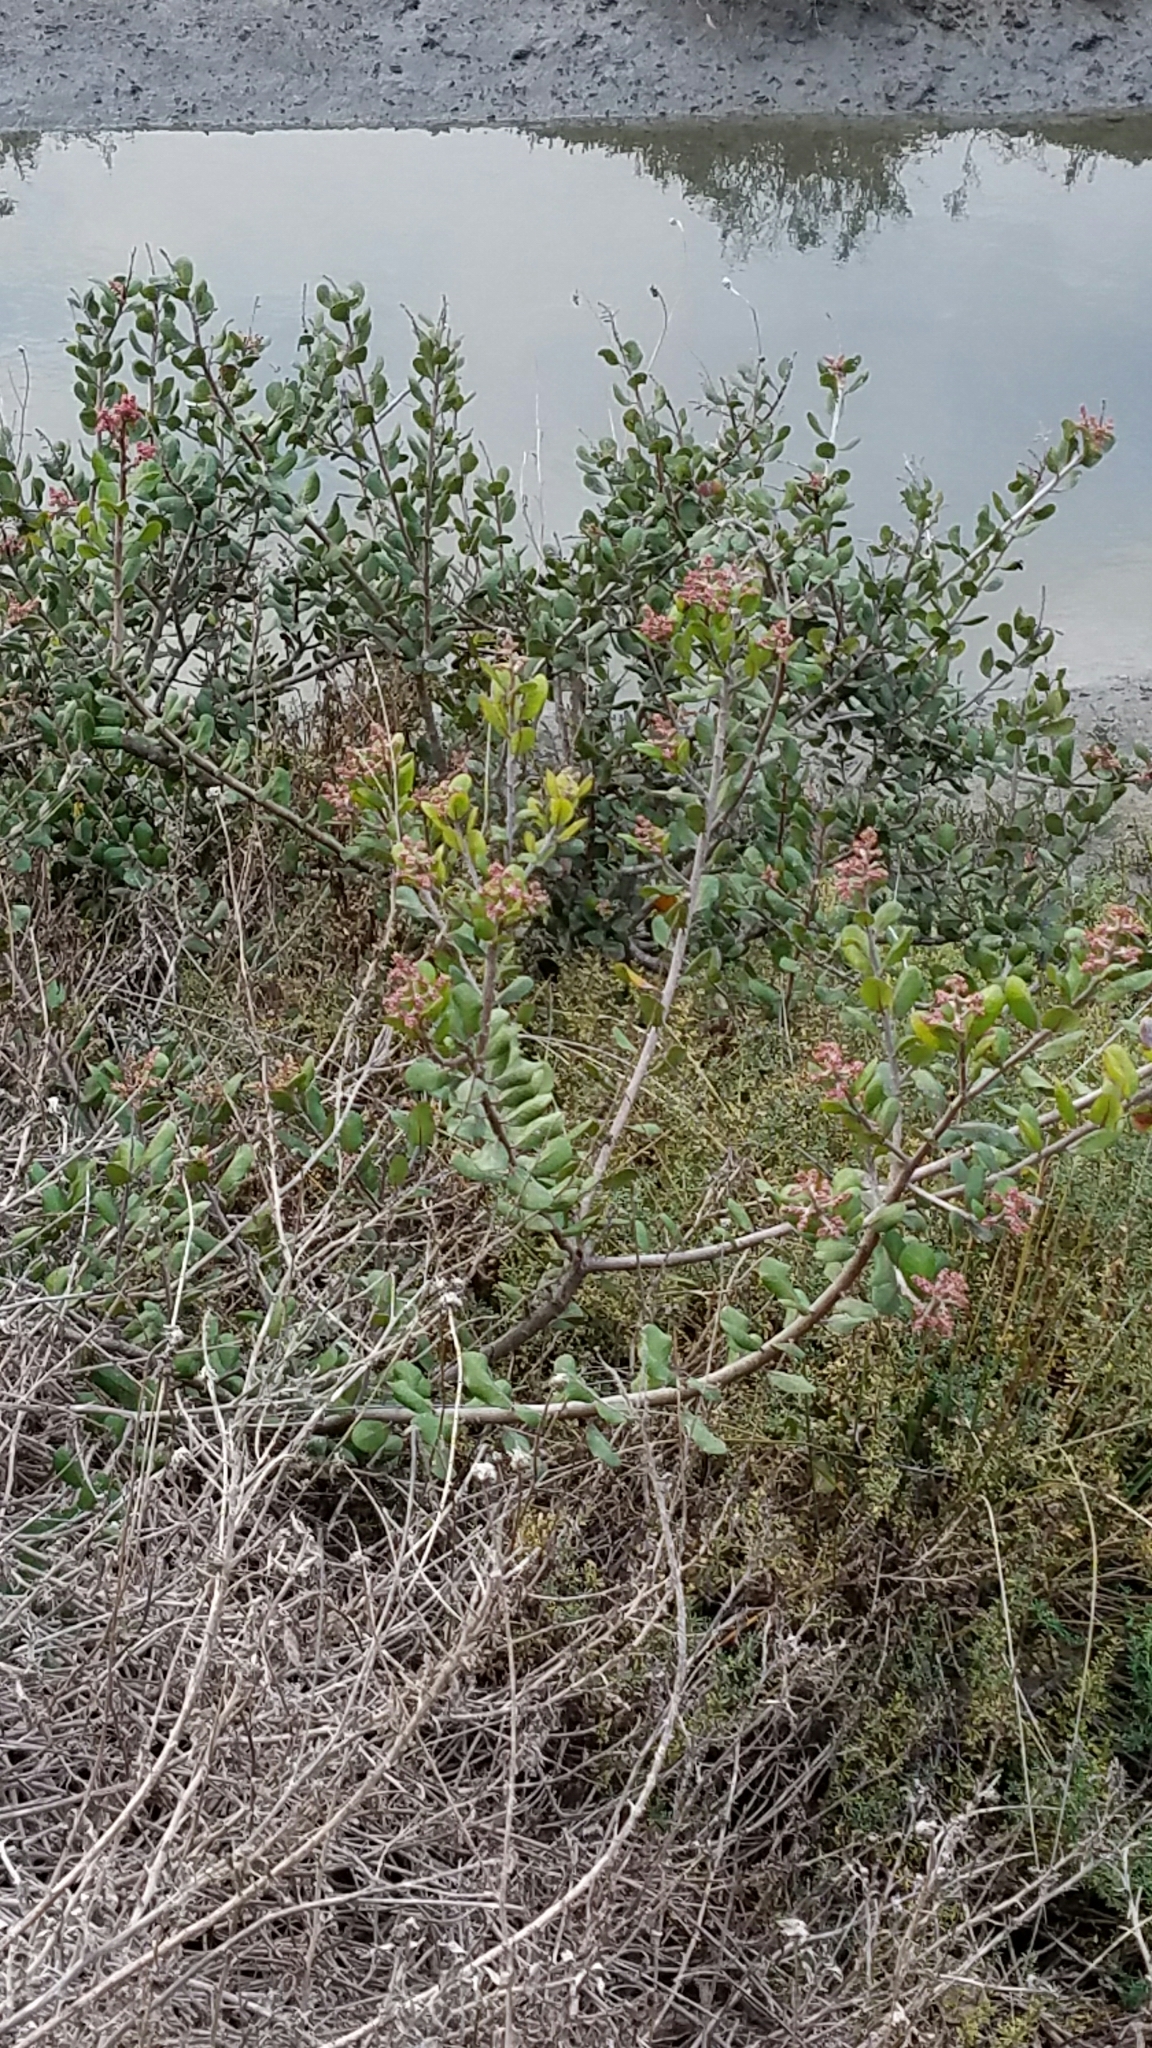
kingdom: Plantae
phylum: Tracheophyta
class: Magnoliopsida
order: Sapindales
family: Anacardiaceae
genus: Rhus
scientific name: Rhus integrifolia
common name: Lemonade sumac
